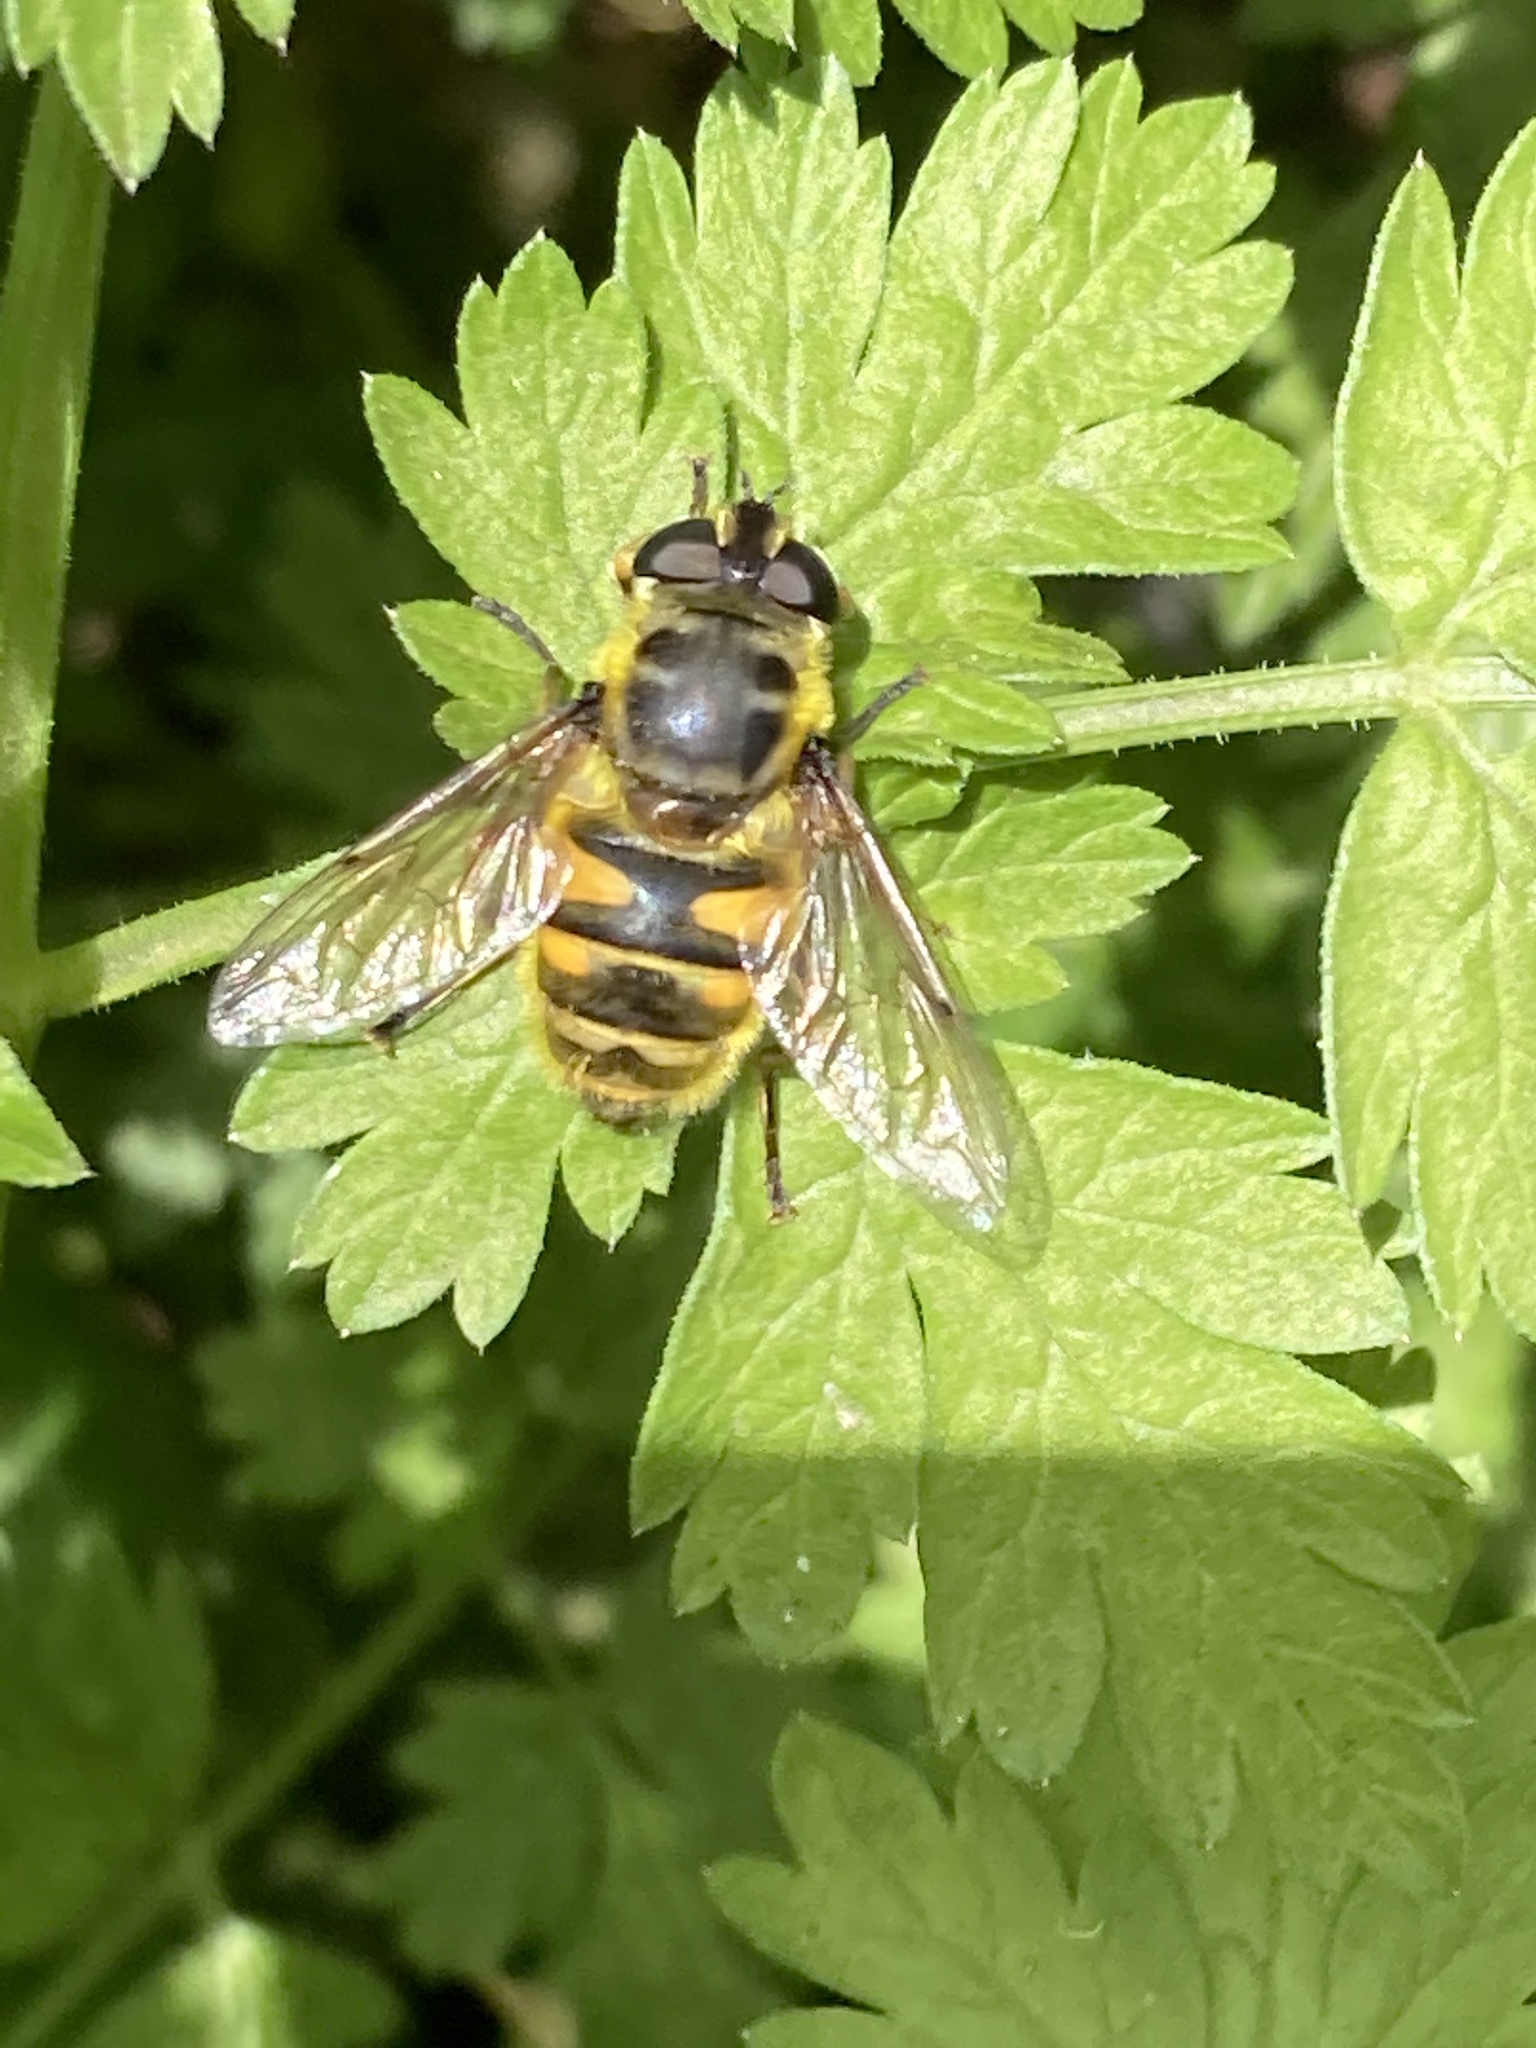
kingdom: Animalia
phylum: Arthropoda
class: Insecta
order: Diptera
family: Syrphidae
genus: Myathropa
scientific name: Myathropa florea
